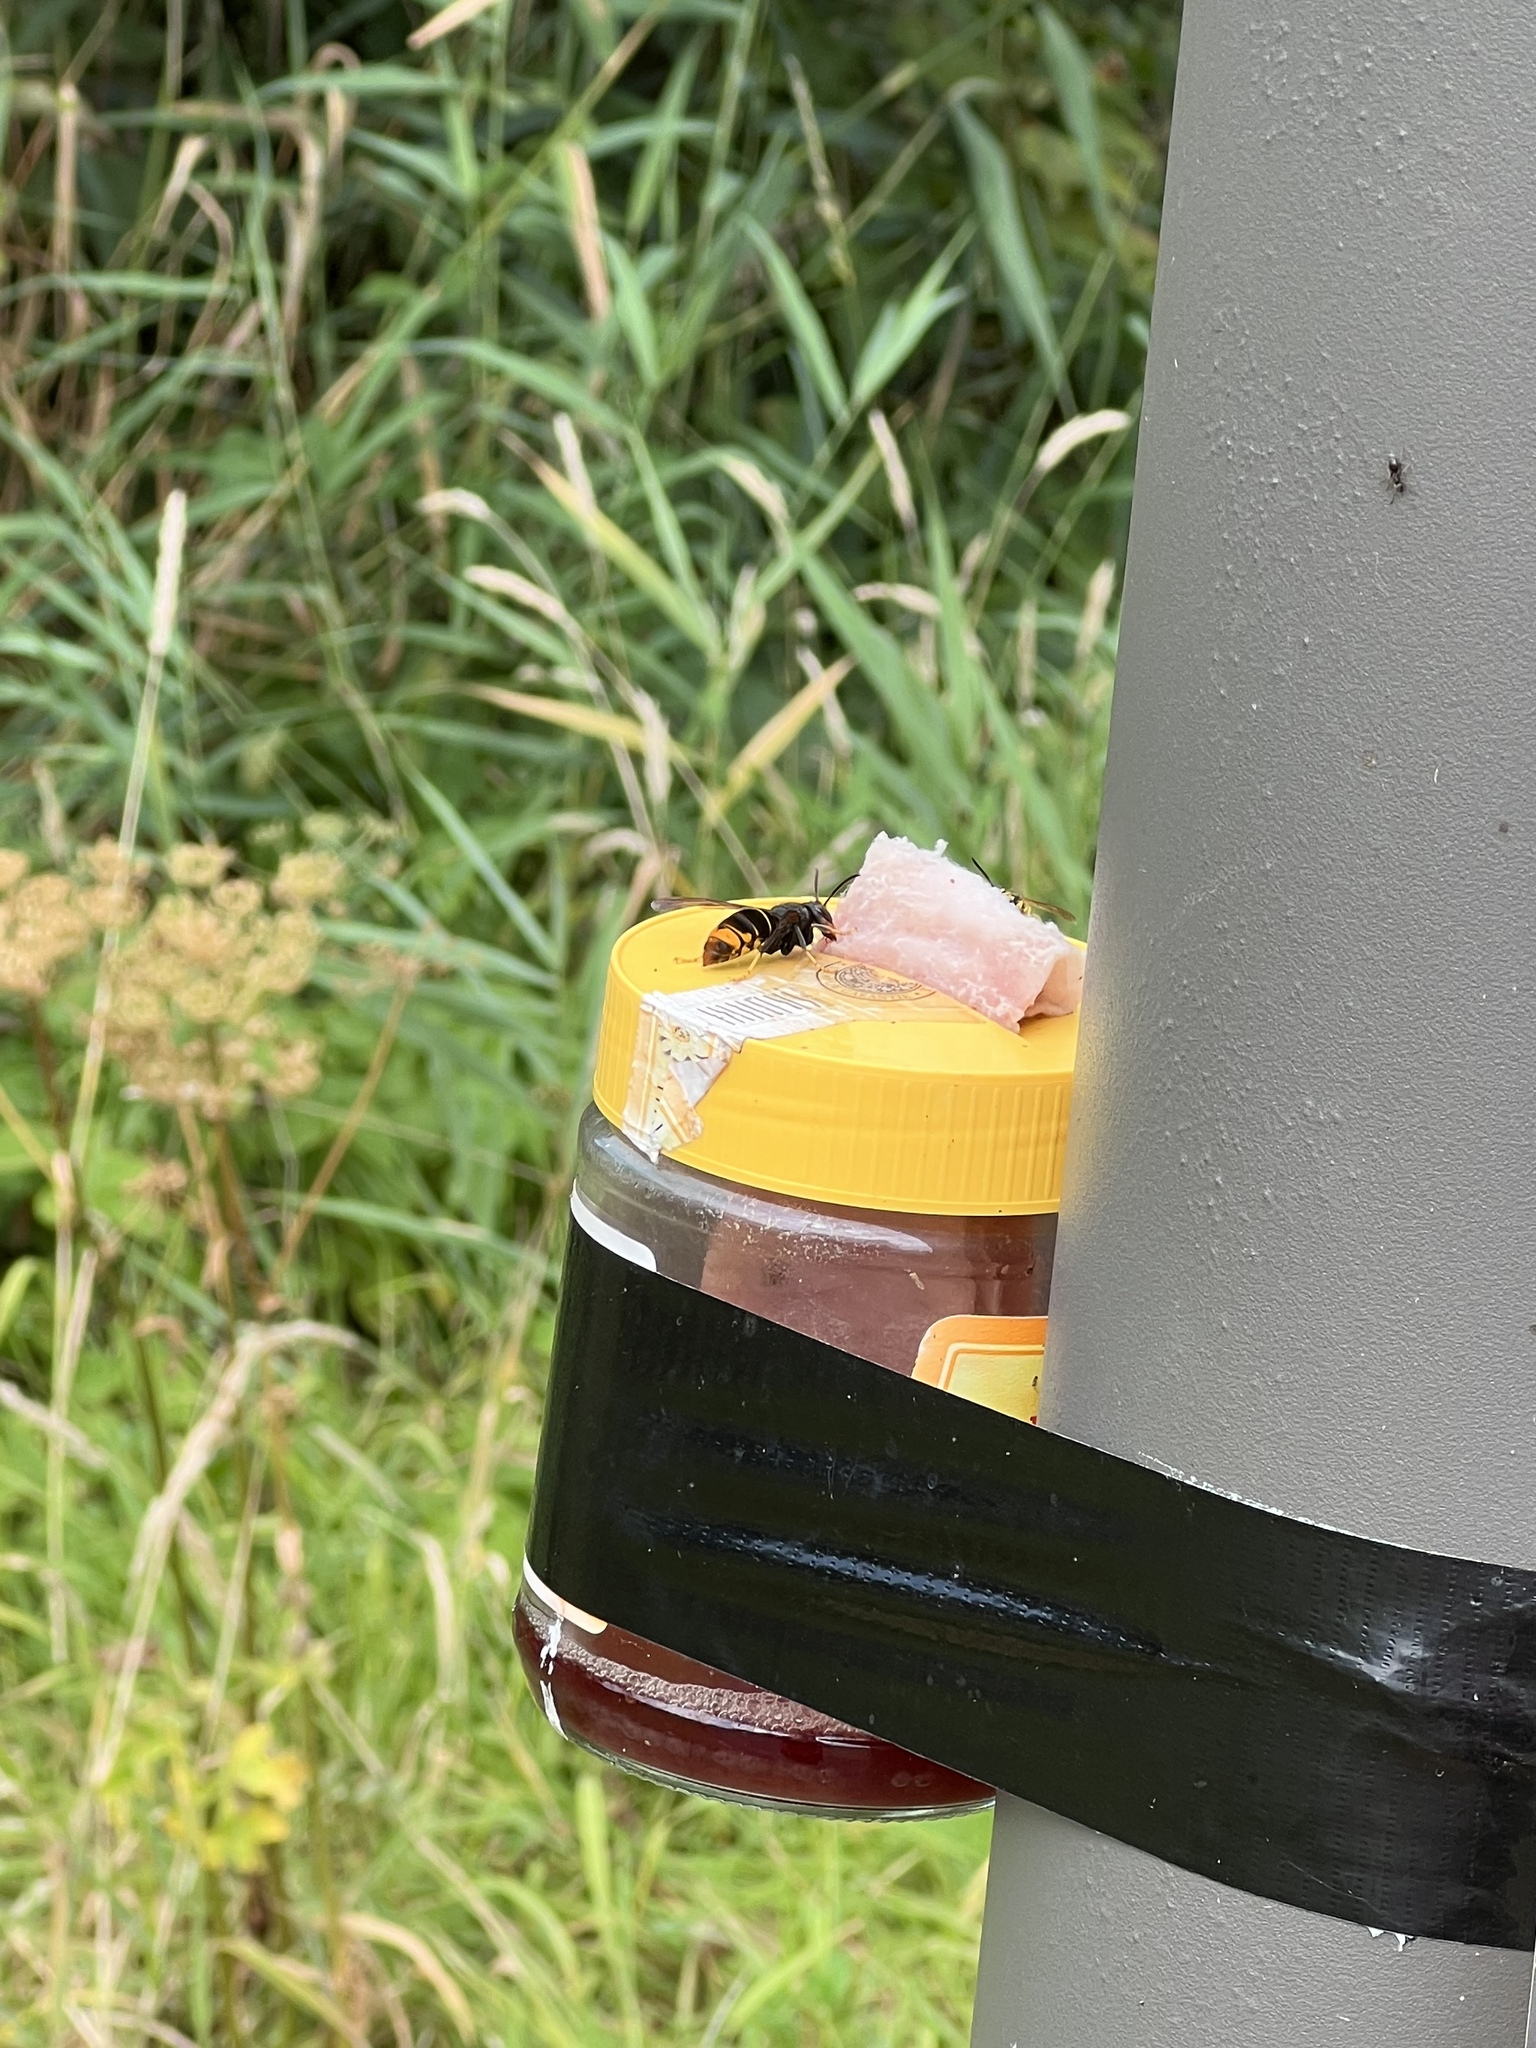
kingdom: Animalia
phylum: Arthropoda
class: Insecta
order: Hymenoptera
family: Vespidae
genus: Vespa
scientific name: Vespa velutina
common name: Asian hornet
